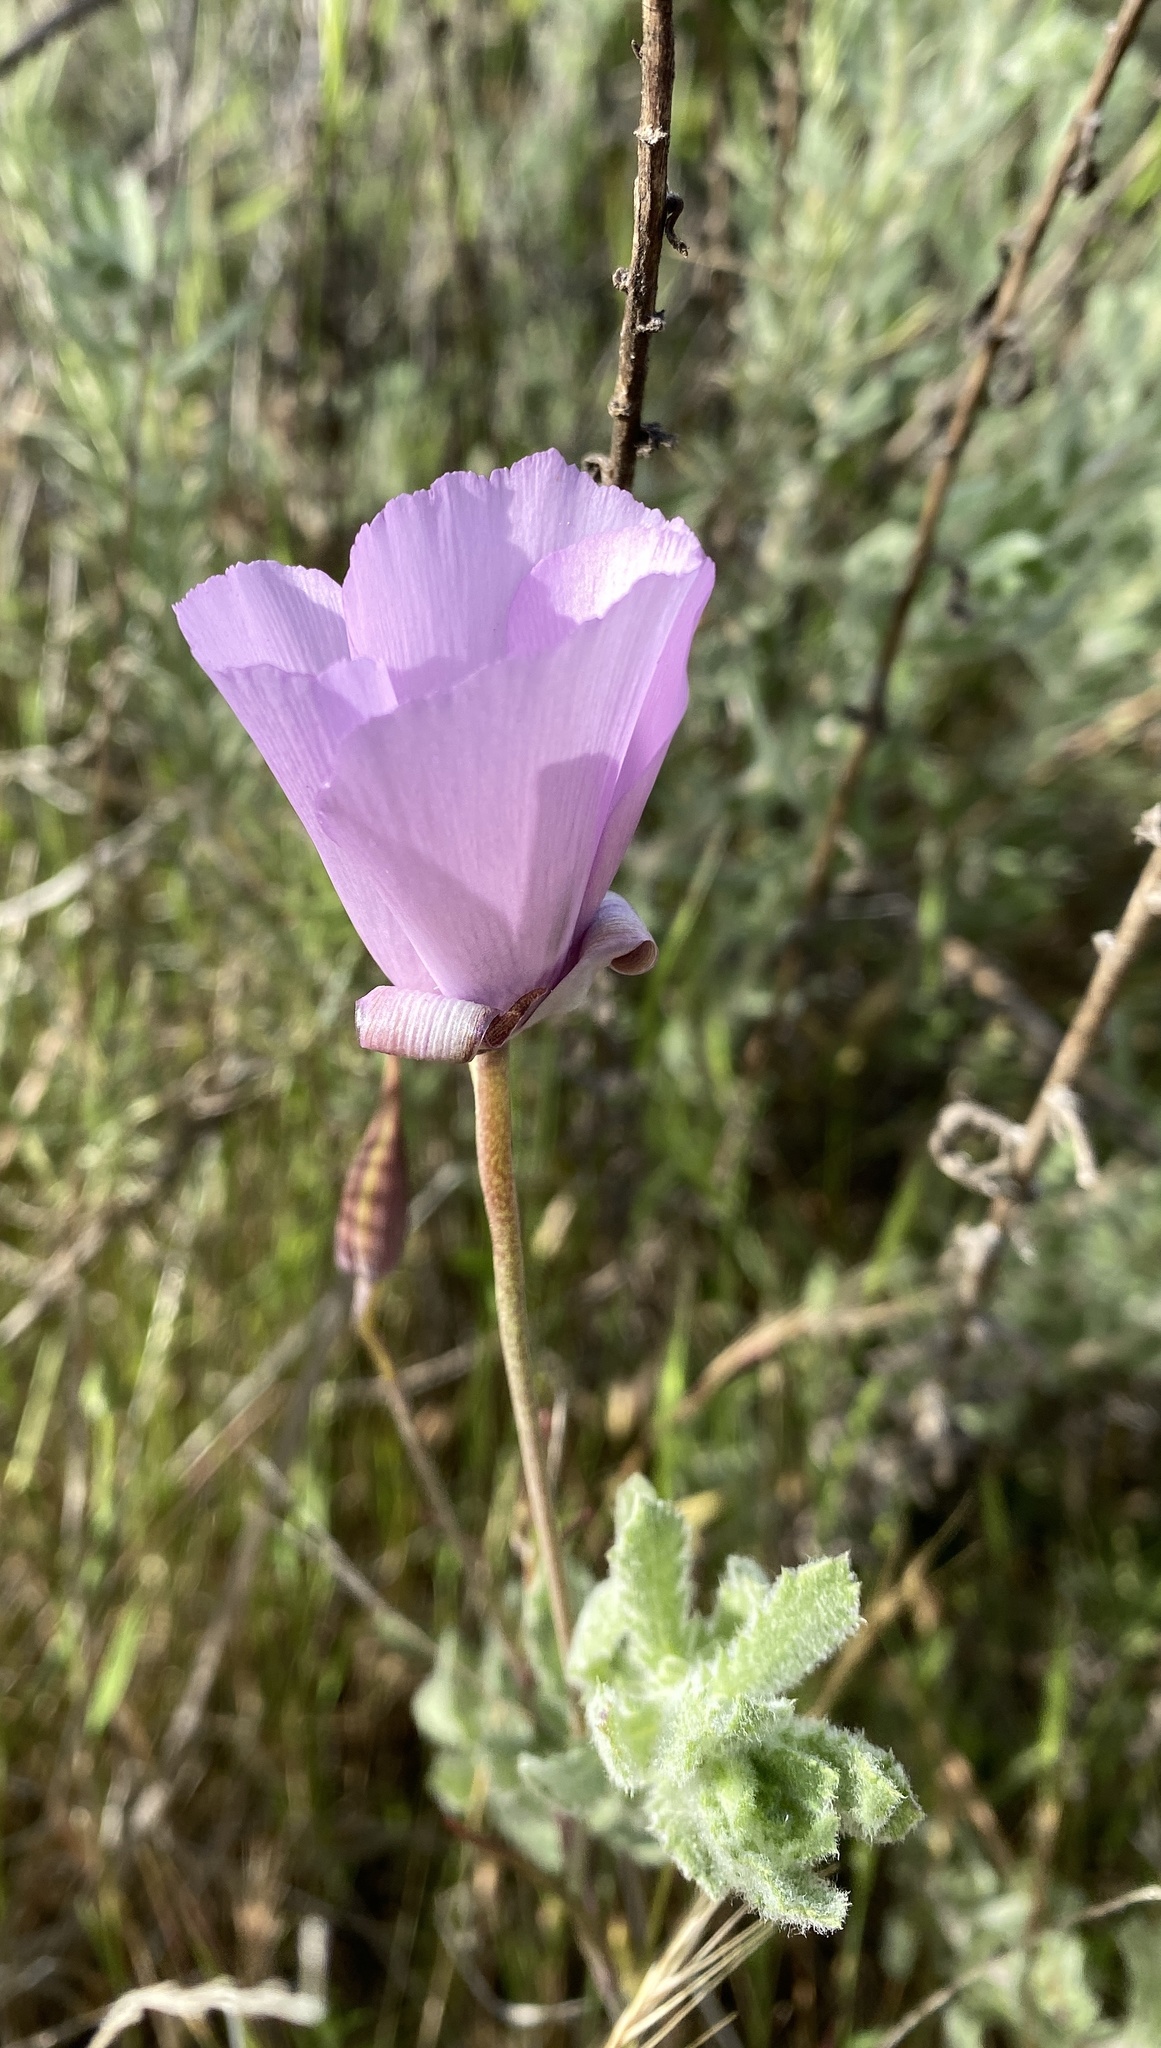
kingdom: Plantae
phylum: Tracheophyta
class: Liliopsida
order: Liliales
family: Liliaceae
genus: Calochortus
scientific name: Calochortus splendens
